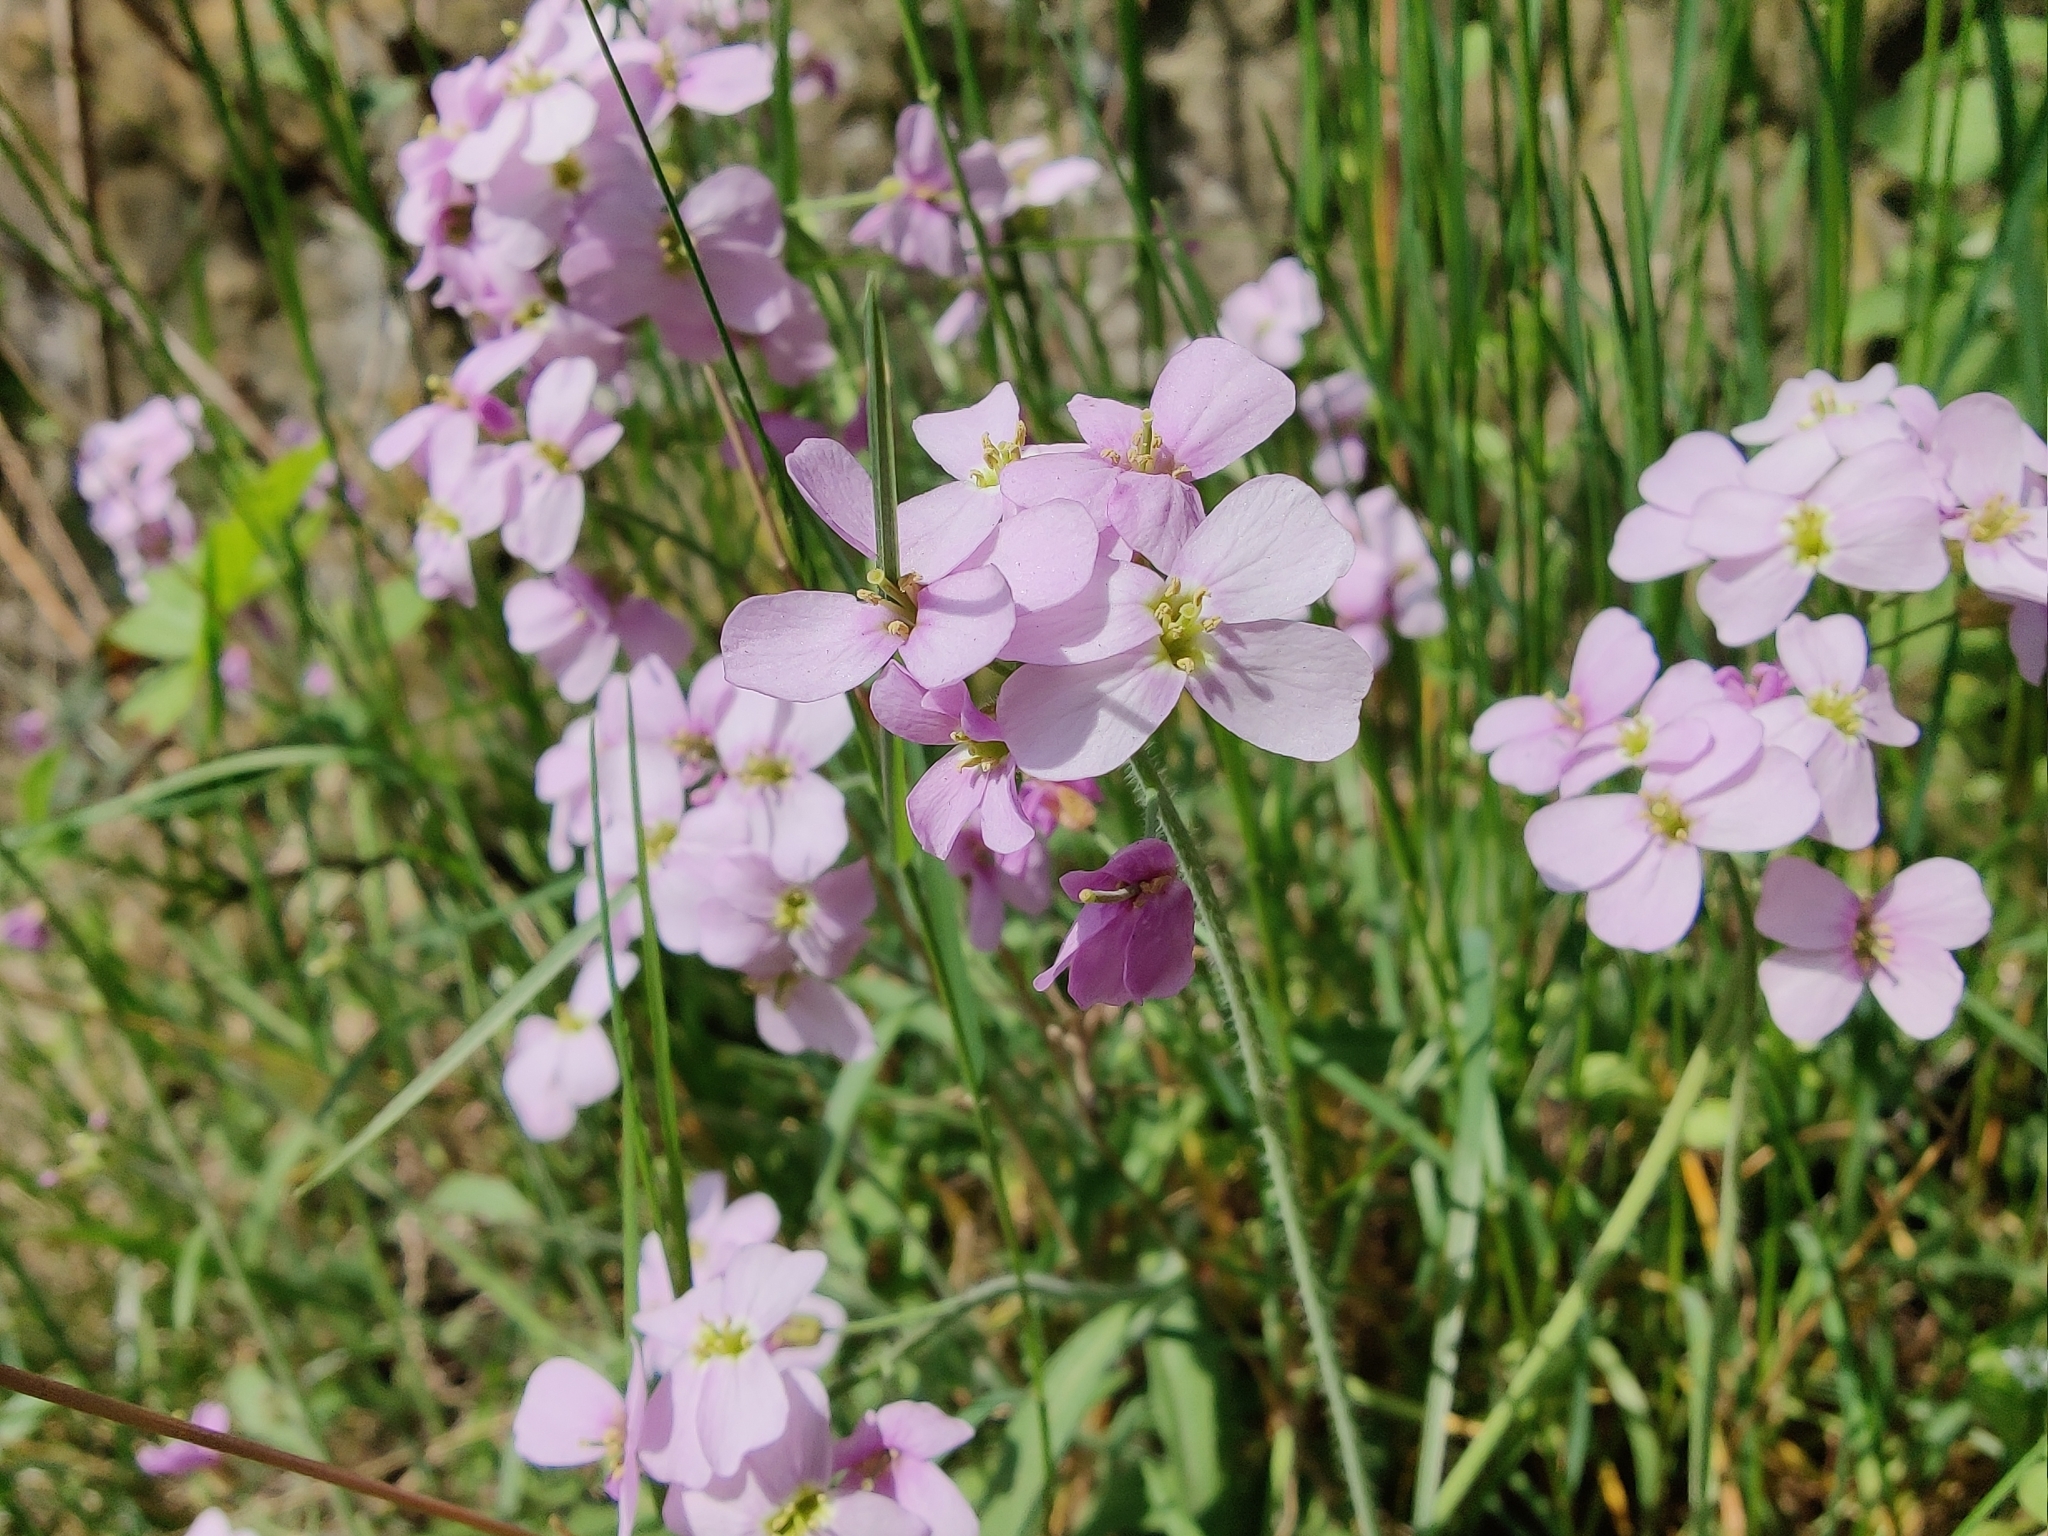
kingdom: Plantae
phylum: Tracheophyta
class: Magnoliopsida
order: Brassicales
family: Brassicaceae
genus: Arabidopsis
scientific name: Arabidopsis arenosa
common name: Sand rock-cress
